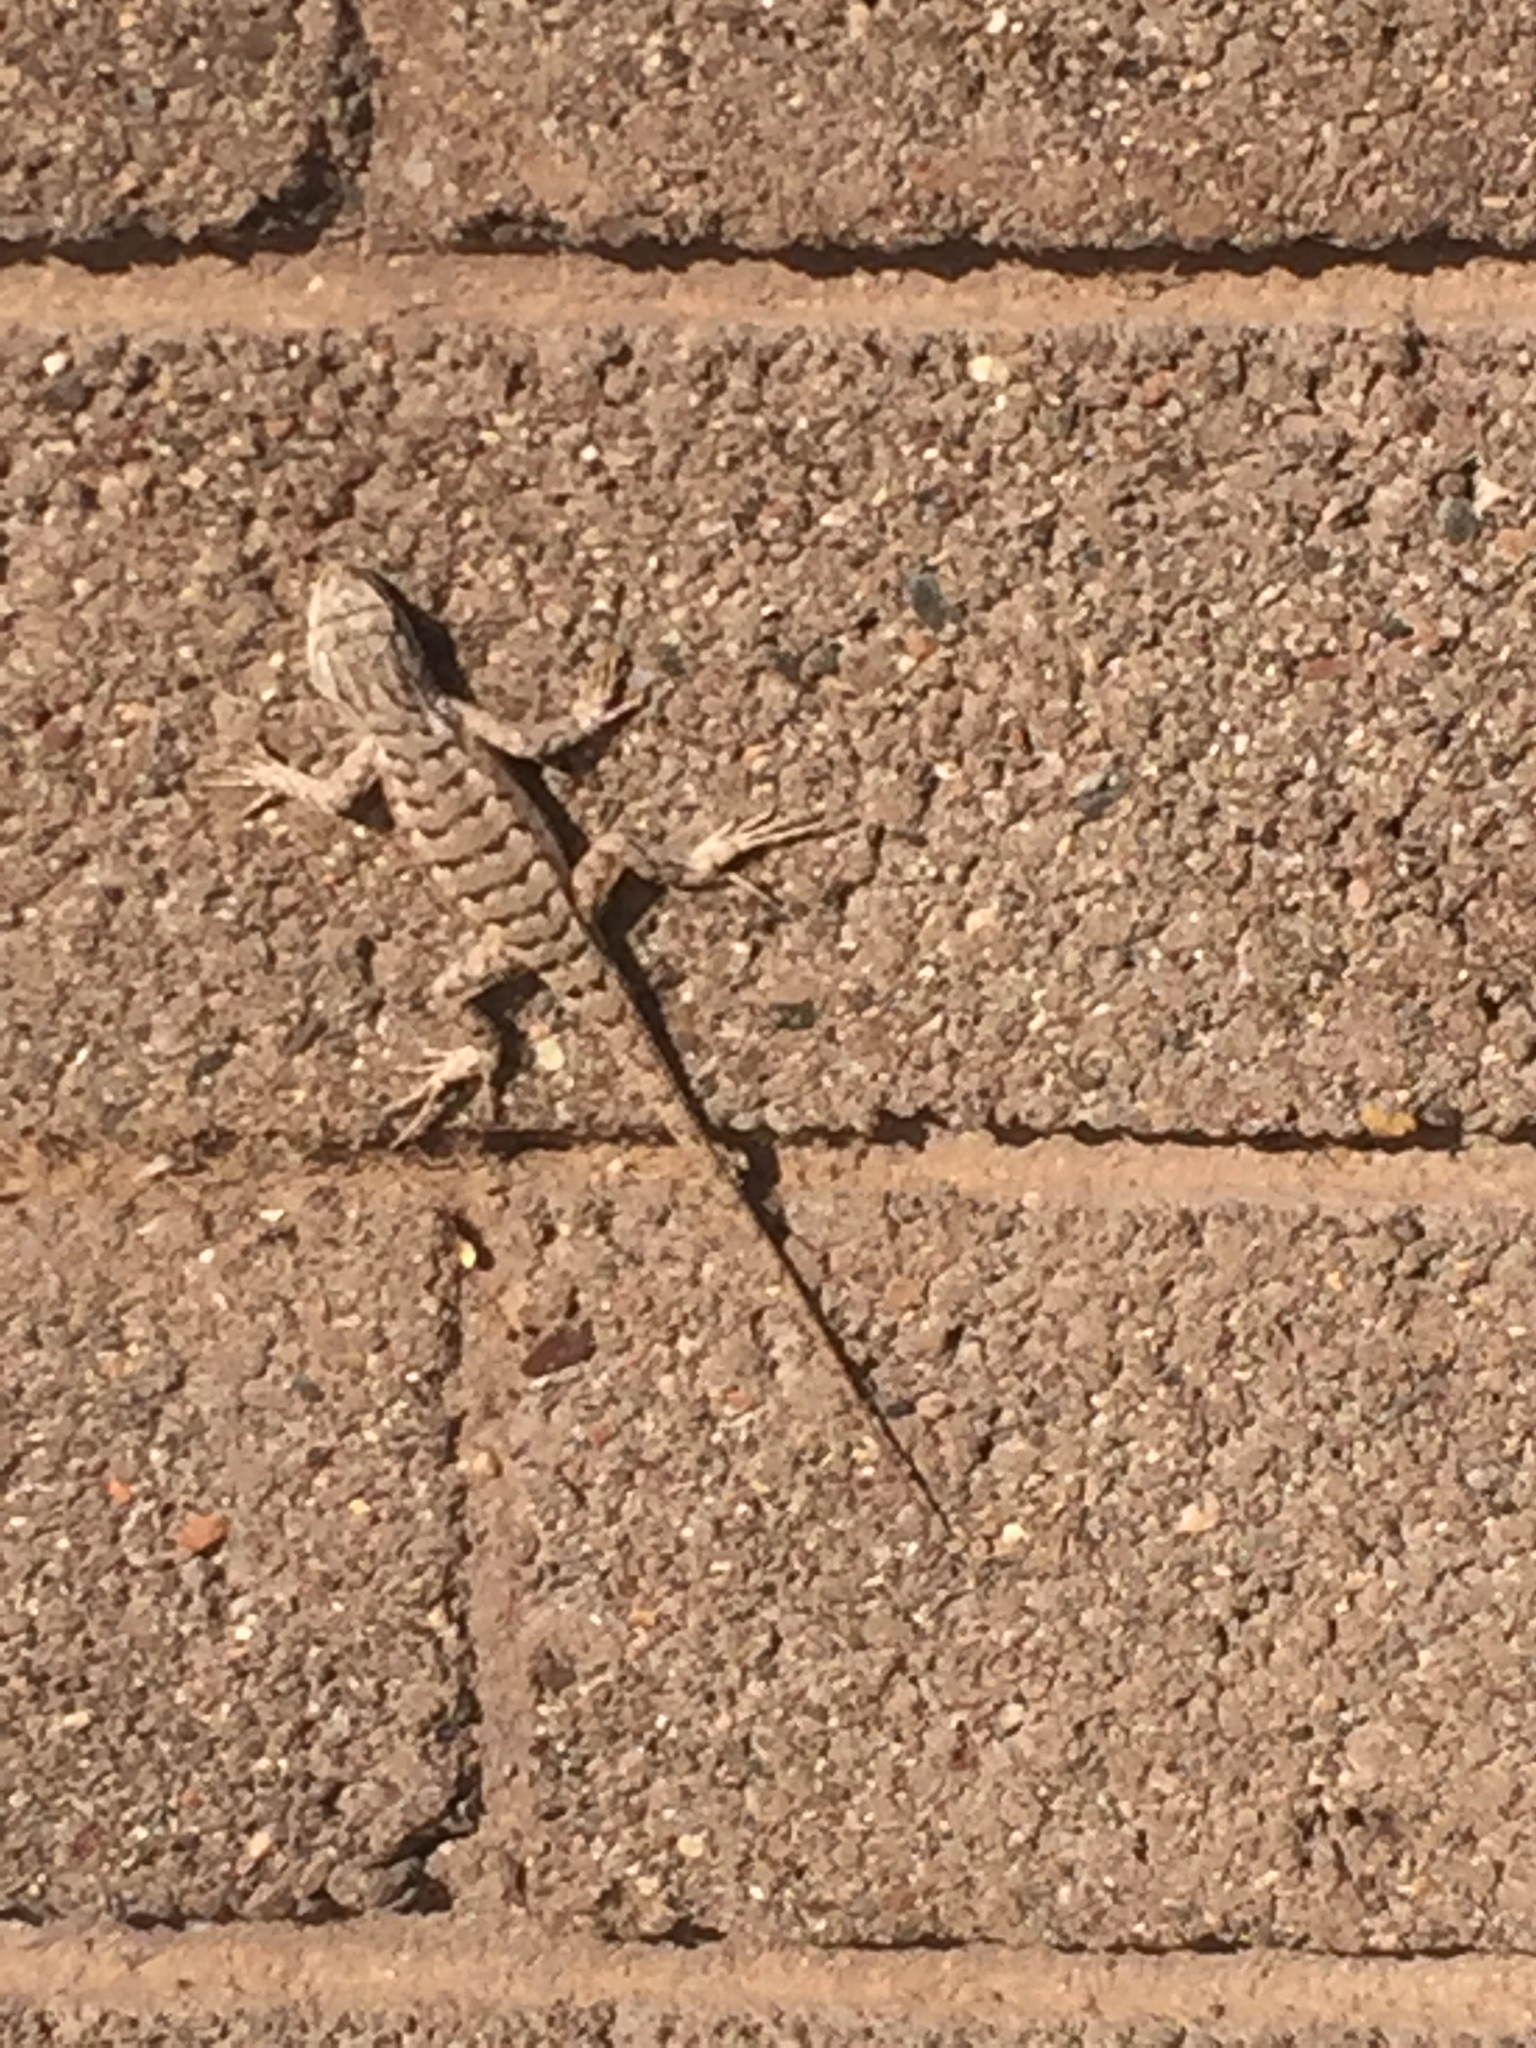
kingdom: Animalia
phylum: Chordata
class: Squamata
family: Phrynosomatidae
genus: Sceloporus
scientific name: Sceloporus tristichus
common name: Plateau fence lizard
